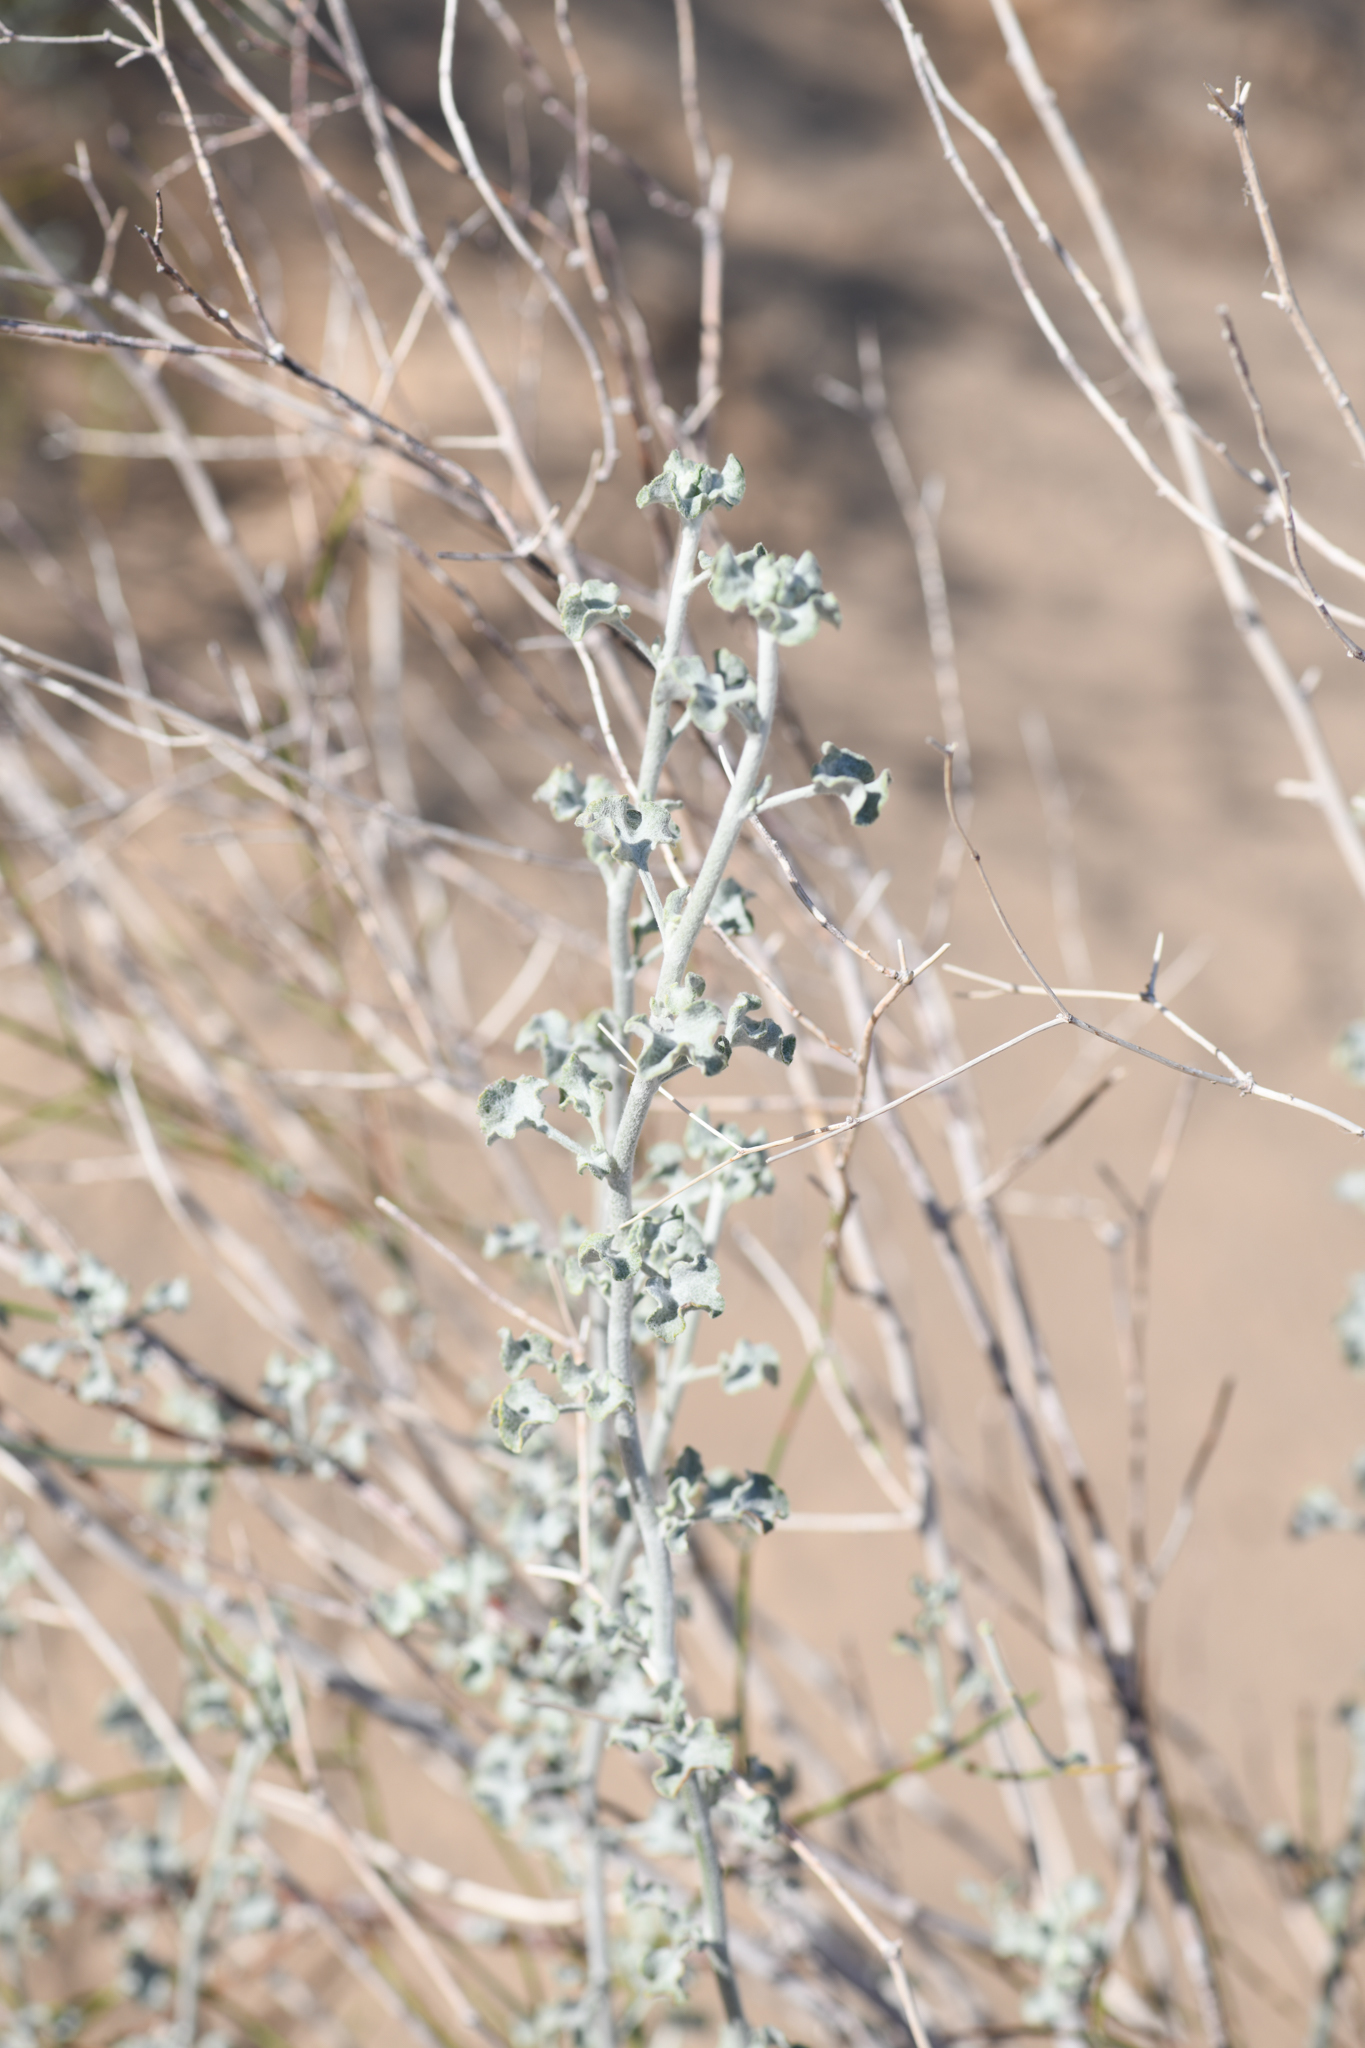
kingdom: Plantae
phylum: Tracheophyta
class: Magnoliopsida
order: Caryophyllales
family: Polygonaceae
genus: Eriogonum
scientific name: Eriogonum deserticola
